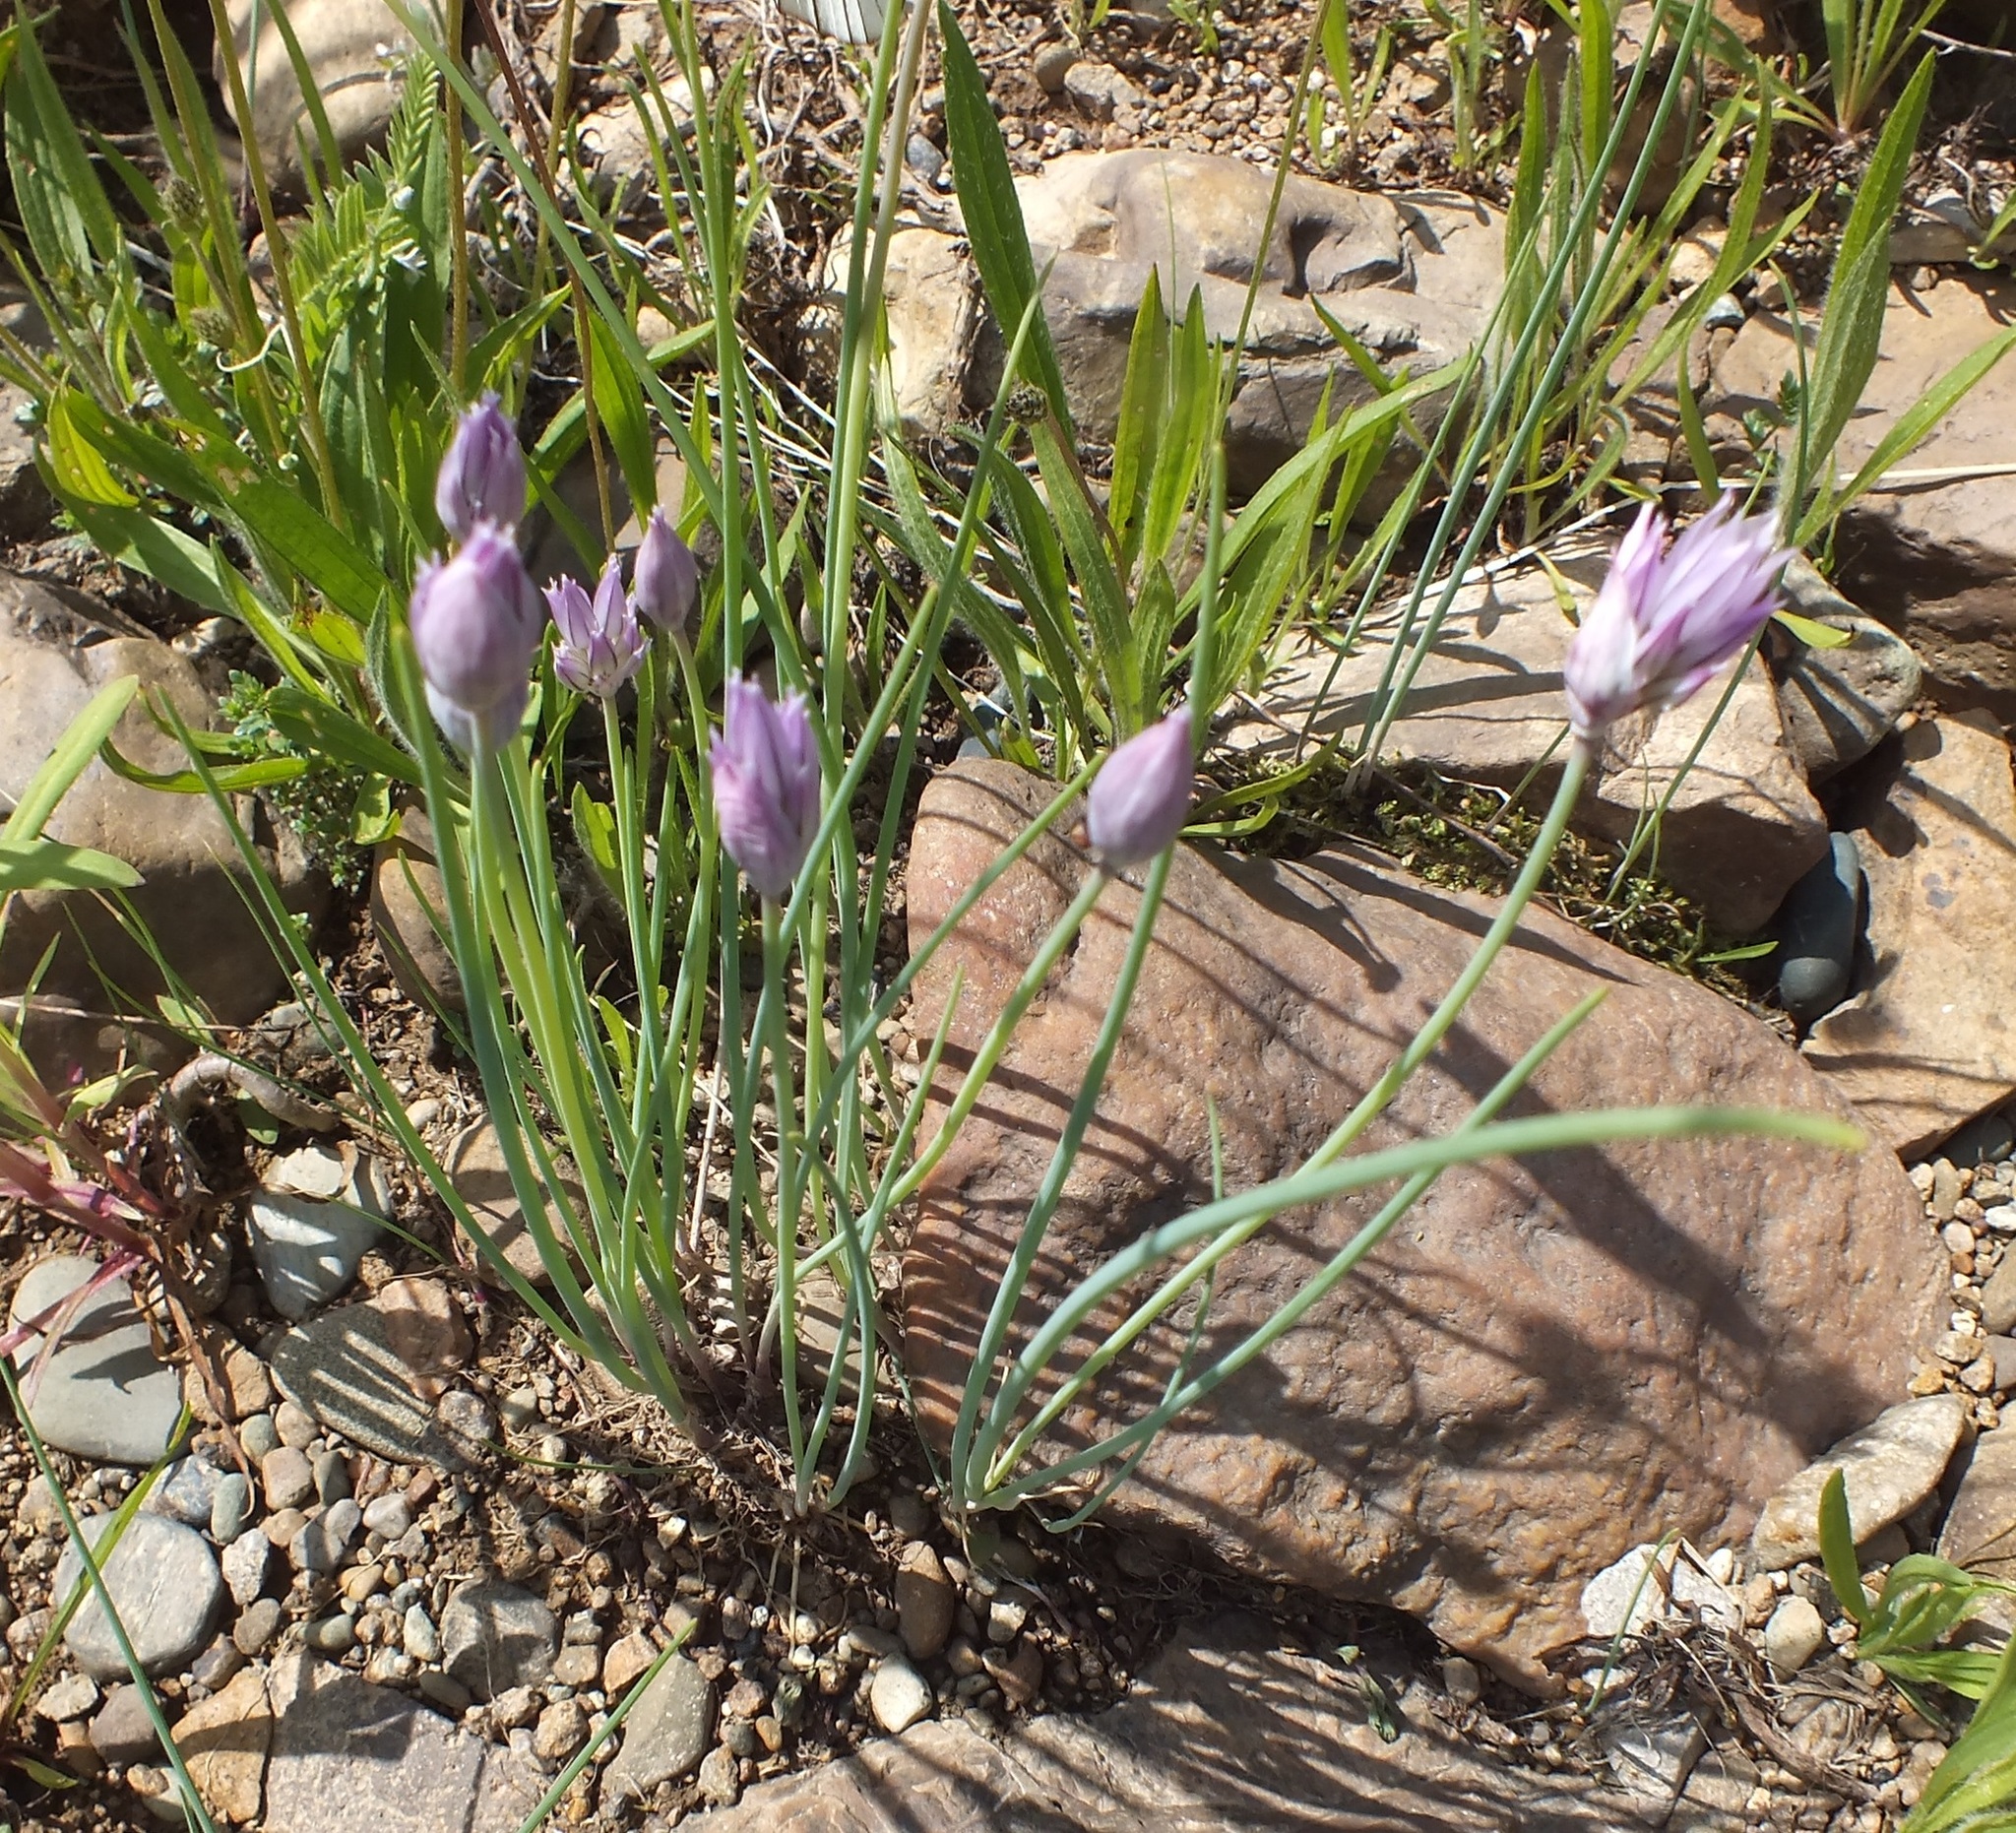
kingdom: Plantae
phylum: Tracheophyta
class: Liliopsida
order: Asparagales
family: Amaryllidaceae
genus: Allium
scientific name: Allium schoenoprasum
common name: Chives
